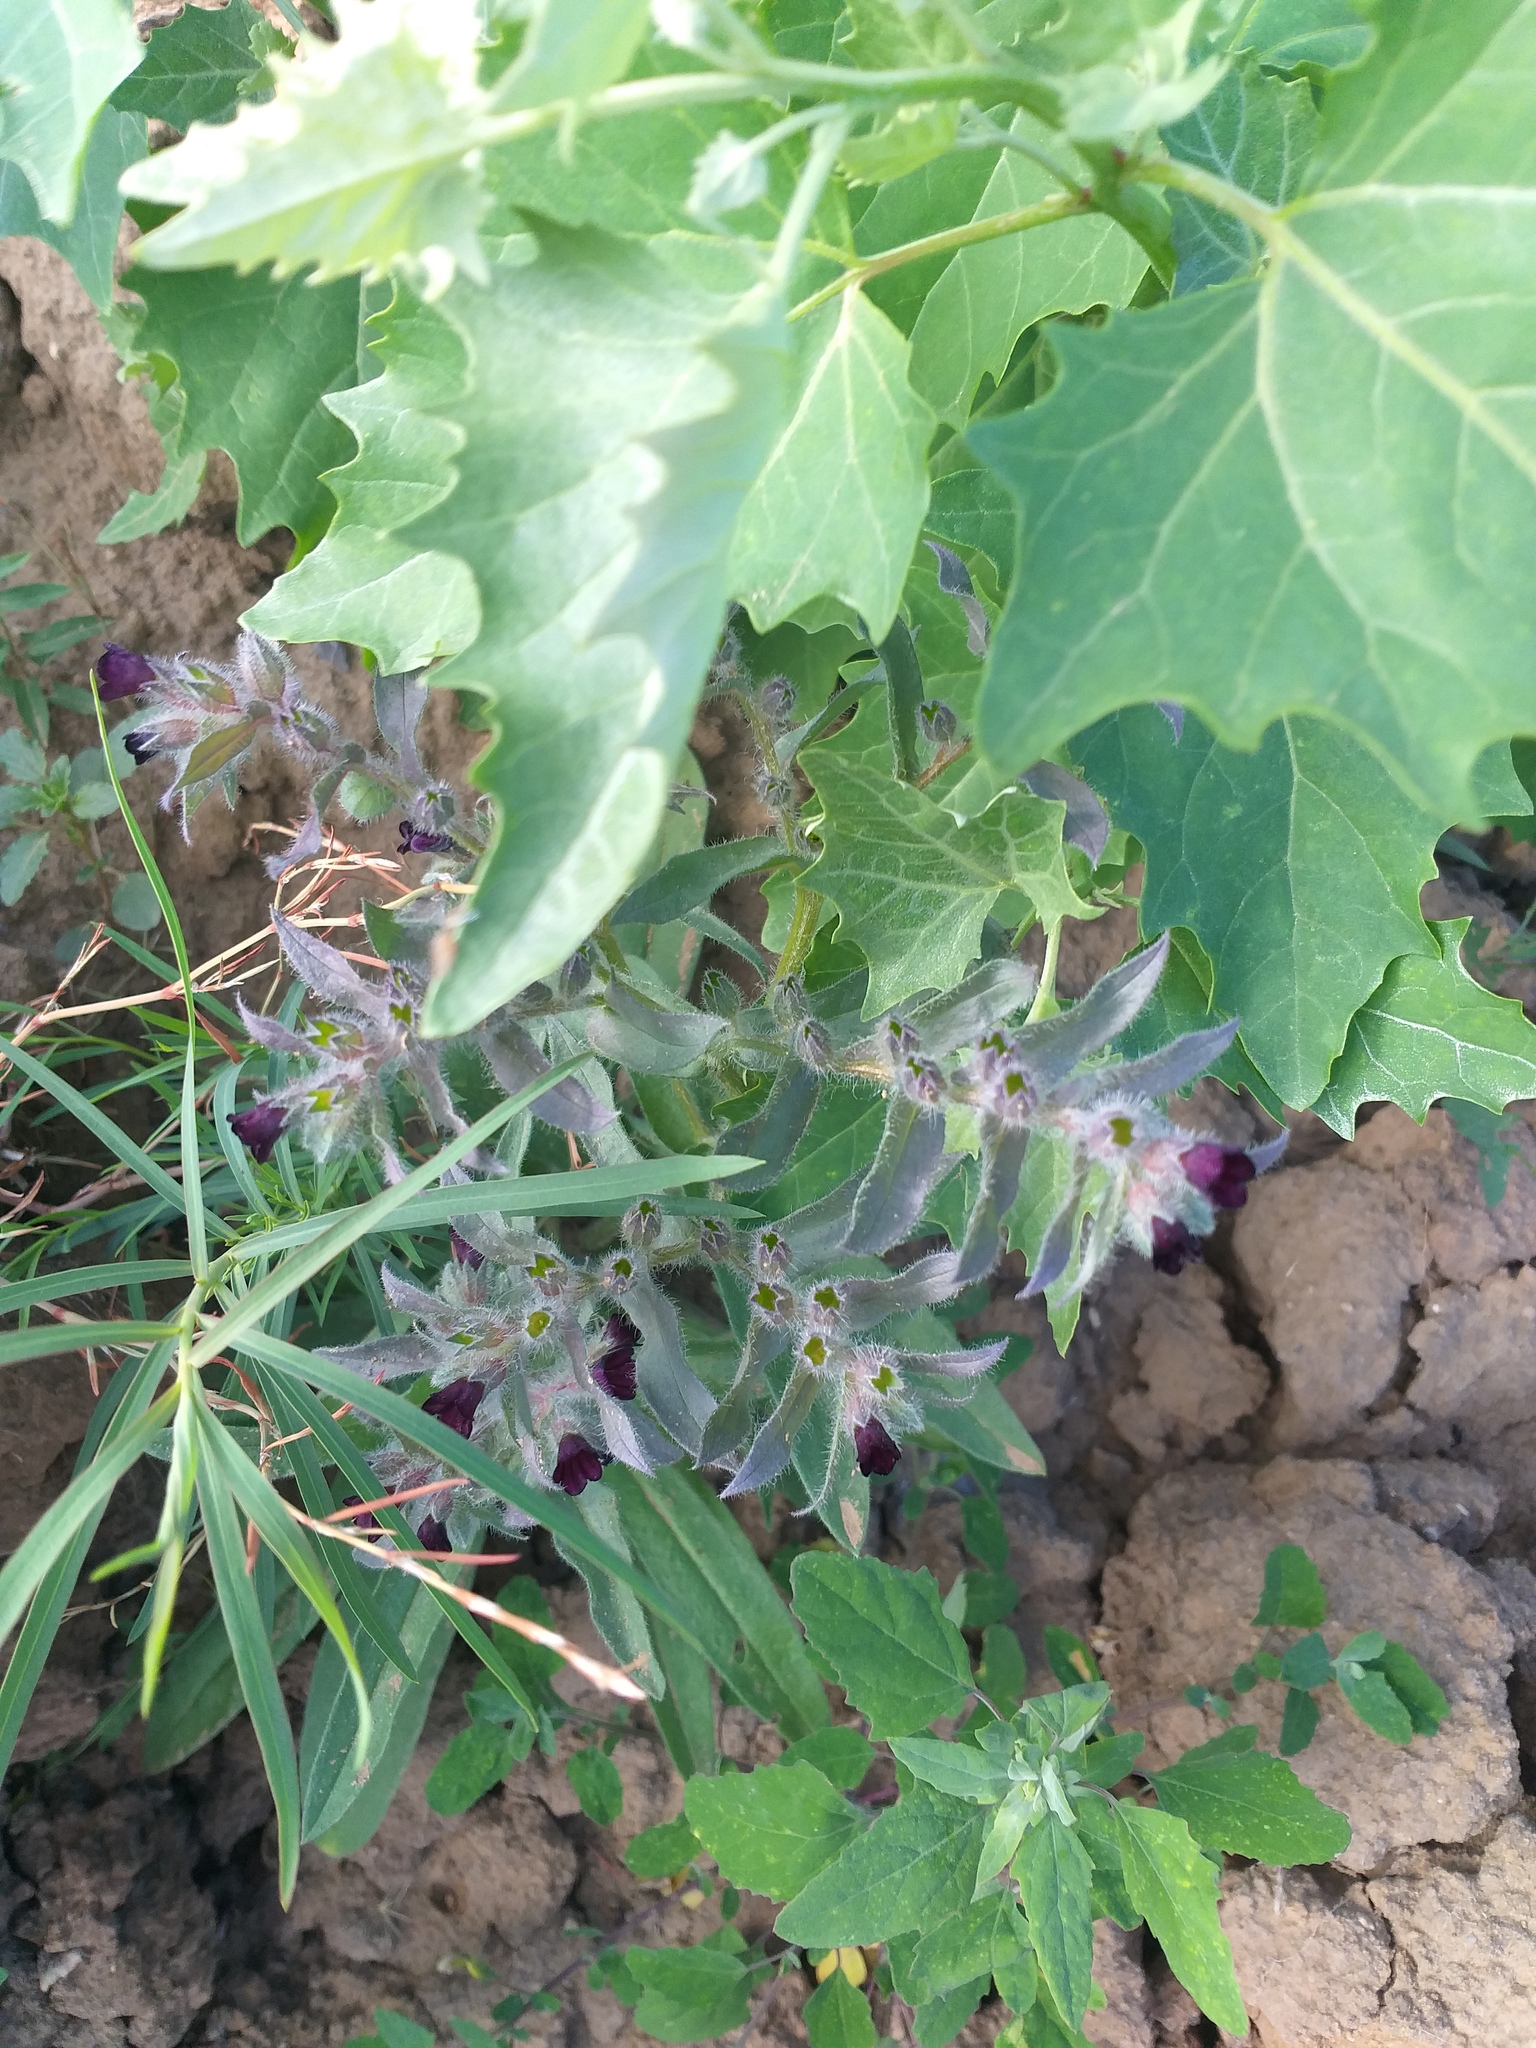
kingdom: Plantae
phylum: Tracheophyta
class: Magnoliopsida
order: Boraginales
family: Boraginaceae
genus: Nonea
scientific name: Nonea pulla
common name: Brown nonea
